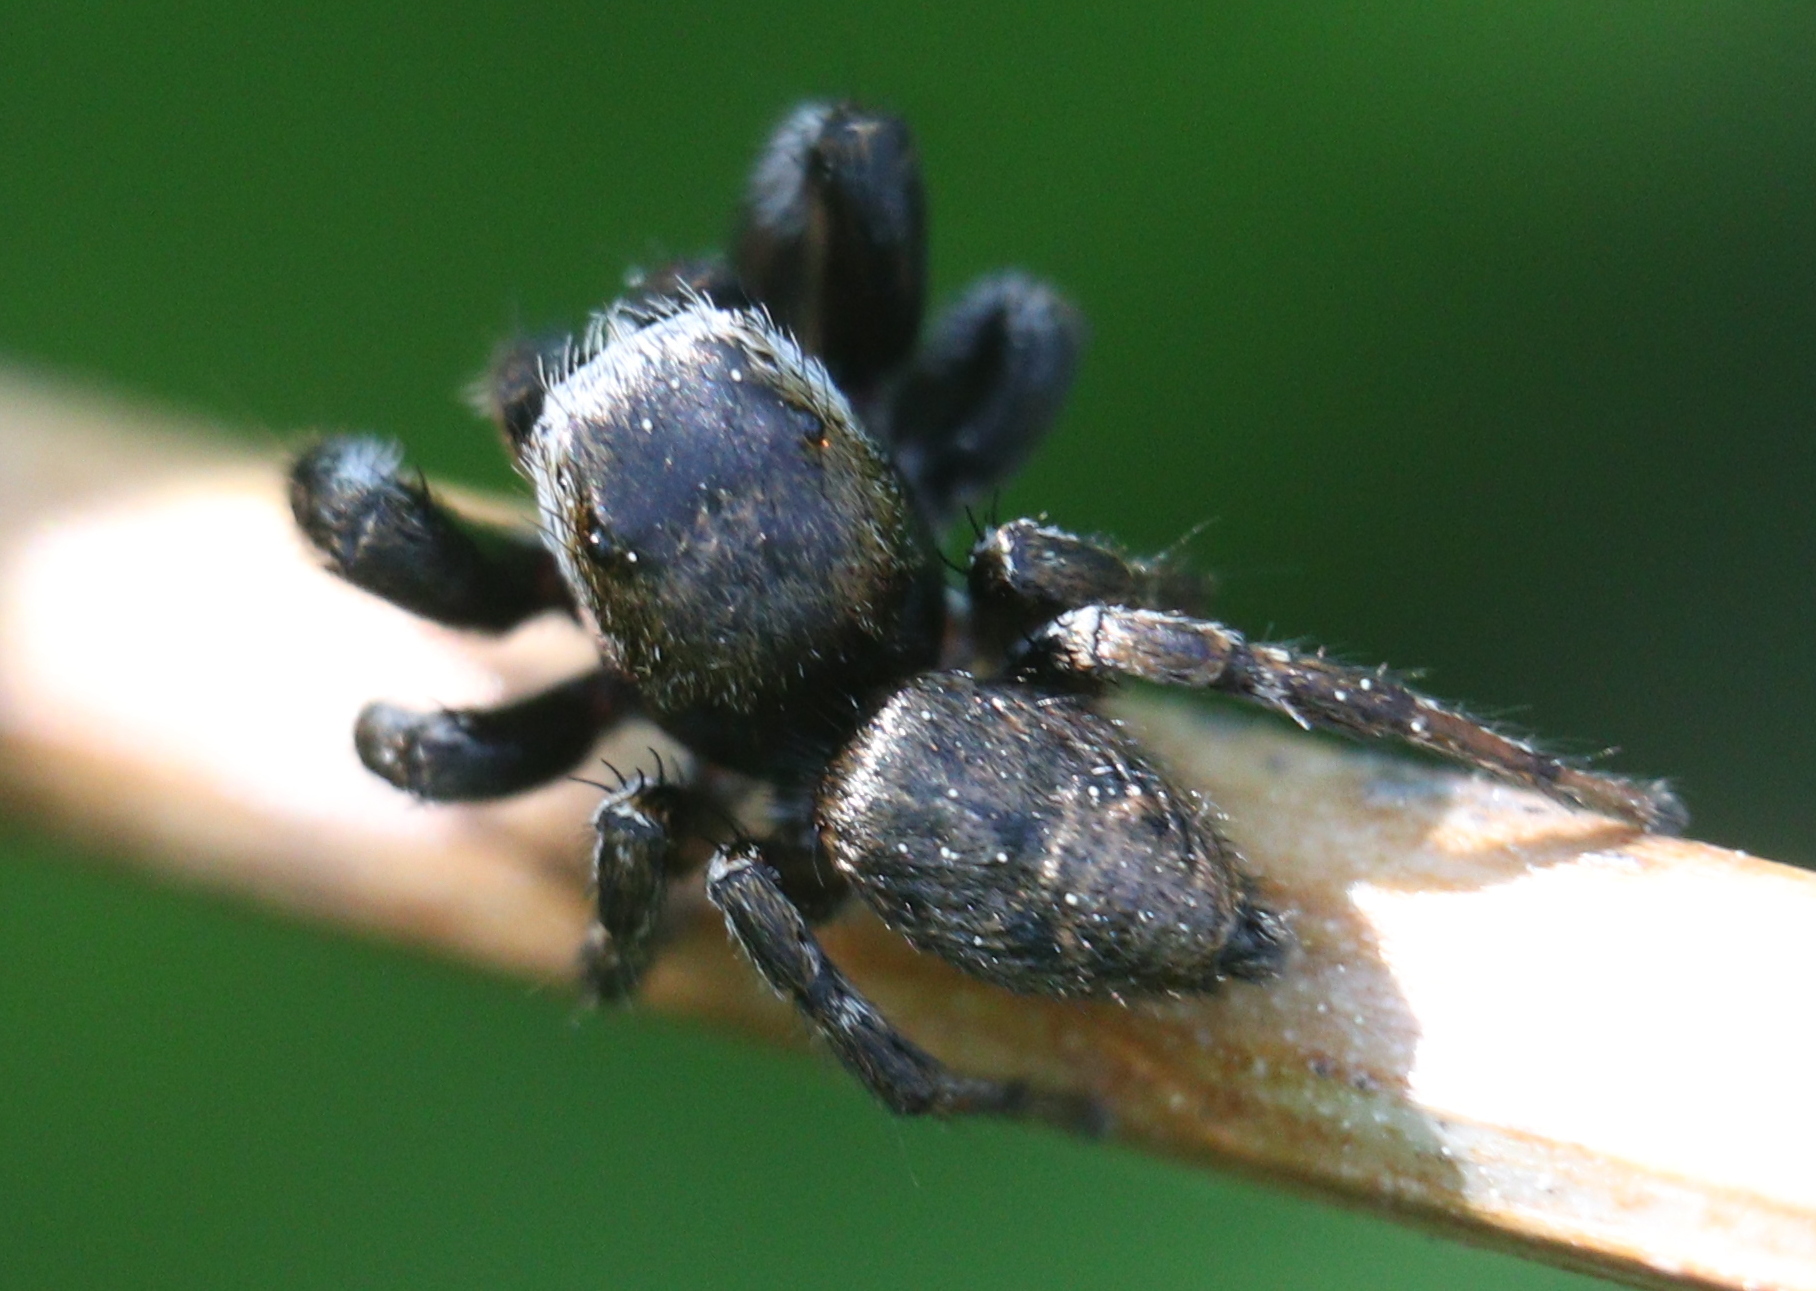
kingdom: Animalia
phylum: Arthropoda
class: Arachnida
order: Araneae
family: Salticidae
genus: Evarcha
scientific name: Evarcha arcuata
